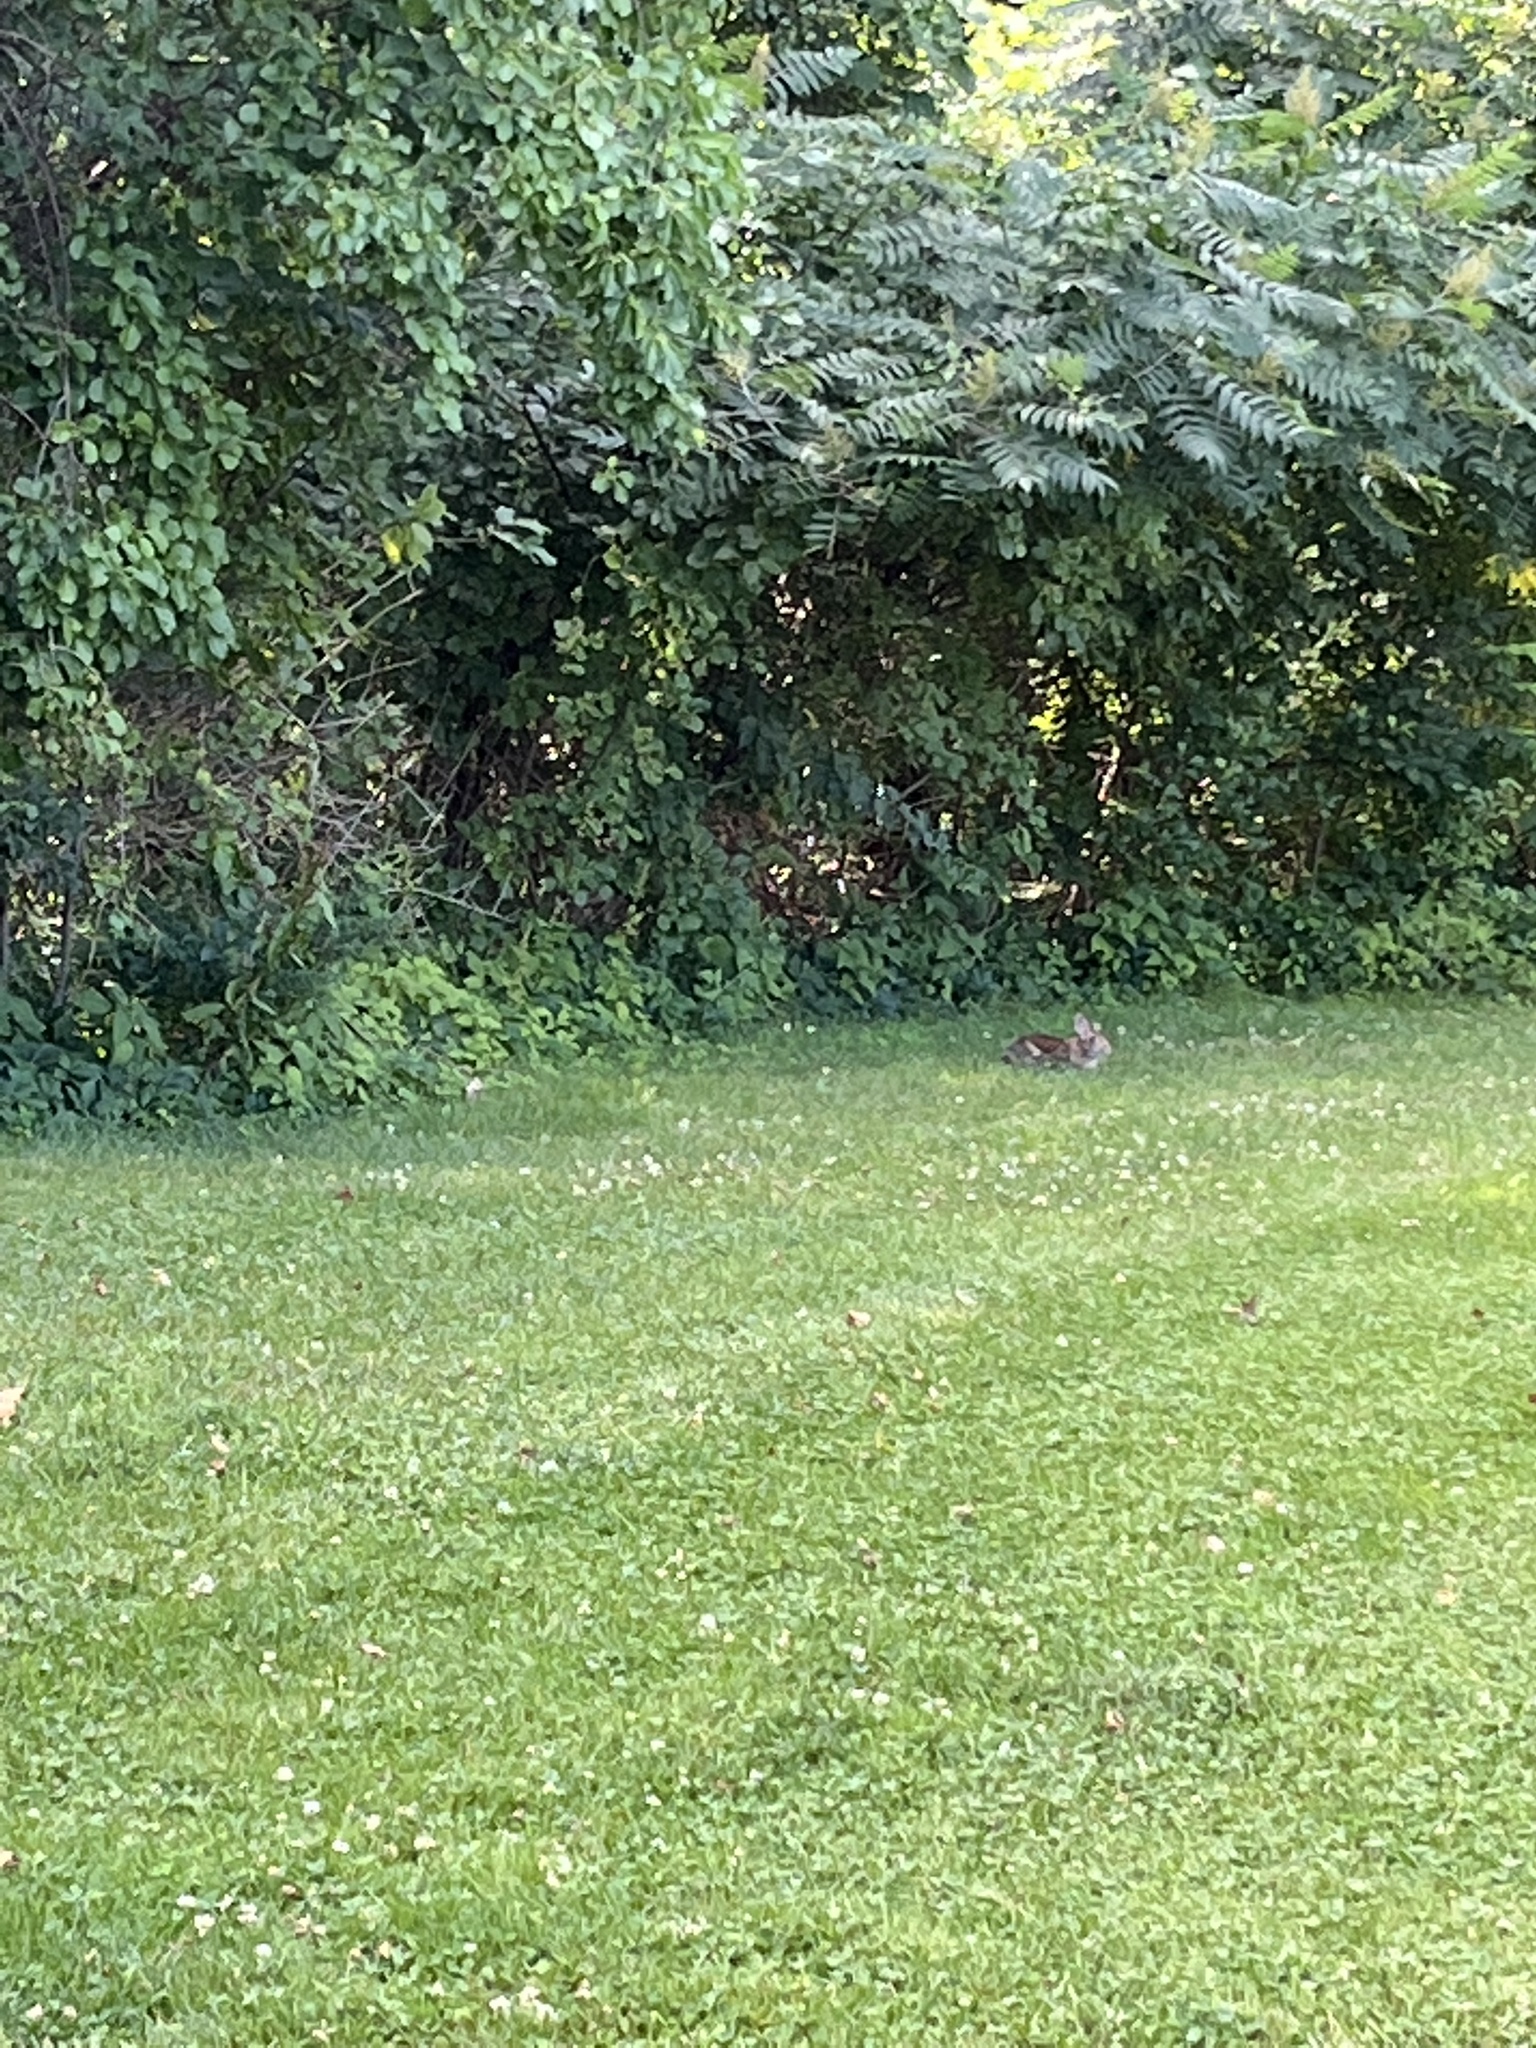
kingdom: Animalia
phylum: Chordata
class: Mammalia
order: Lagomorpha
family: Leporidae
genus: Sylvilagus
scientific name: Sylvilagus floridanus
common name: Eastern cottontail
